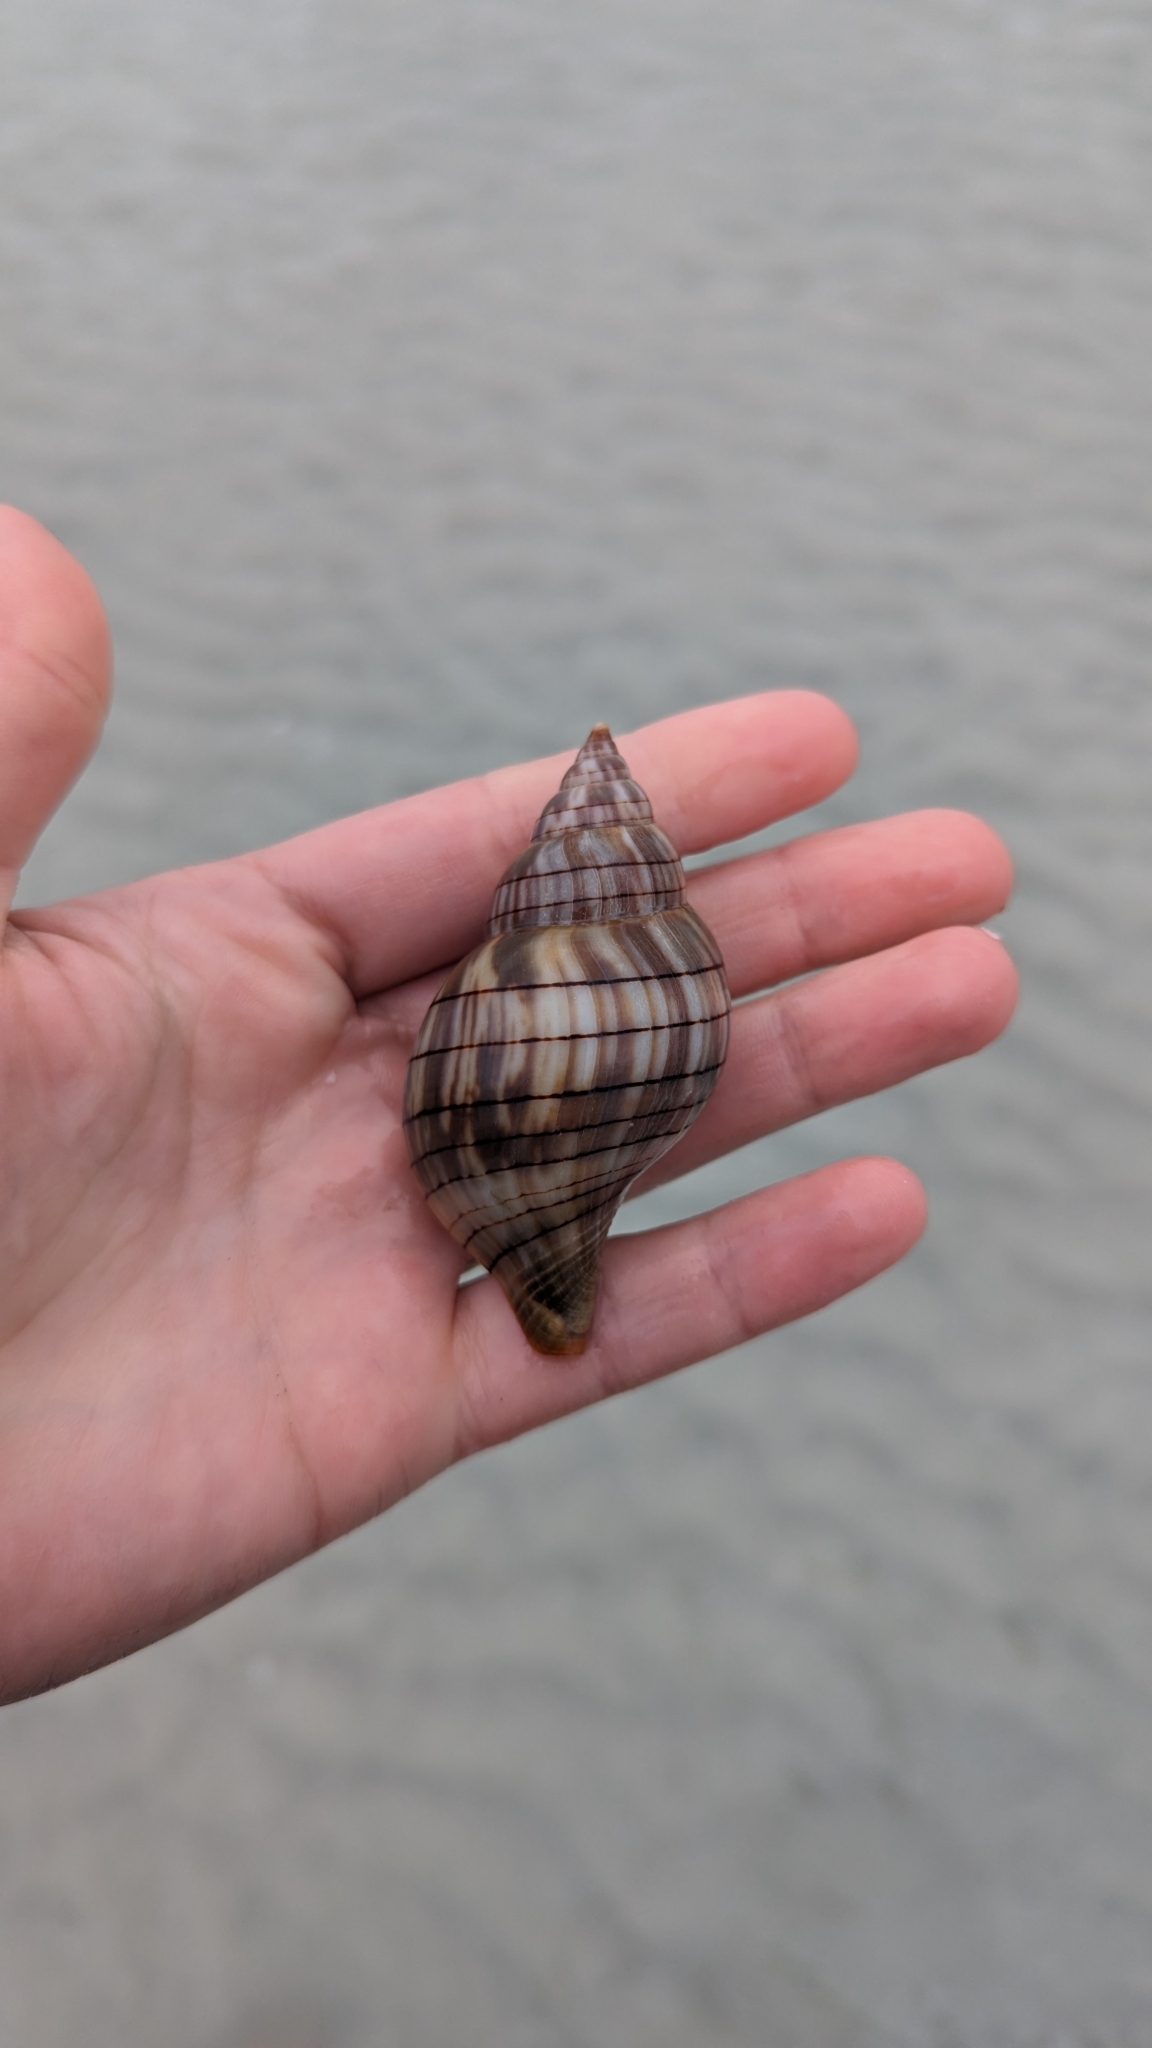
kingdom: Animalia
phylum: Mollusca
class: Gastropoda
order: Neogastropoda
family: Fasciolariidae
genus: Cinctura
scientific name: Cinctura hunteria
